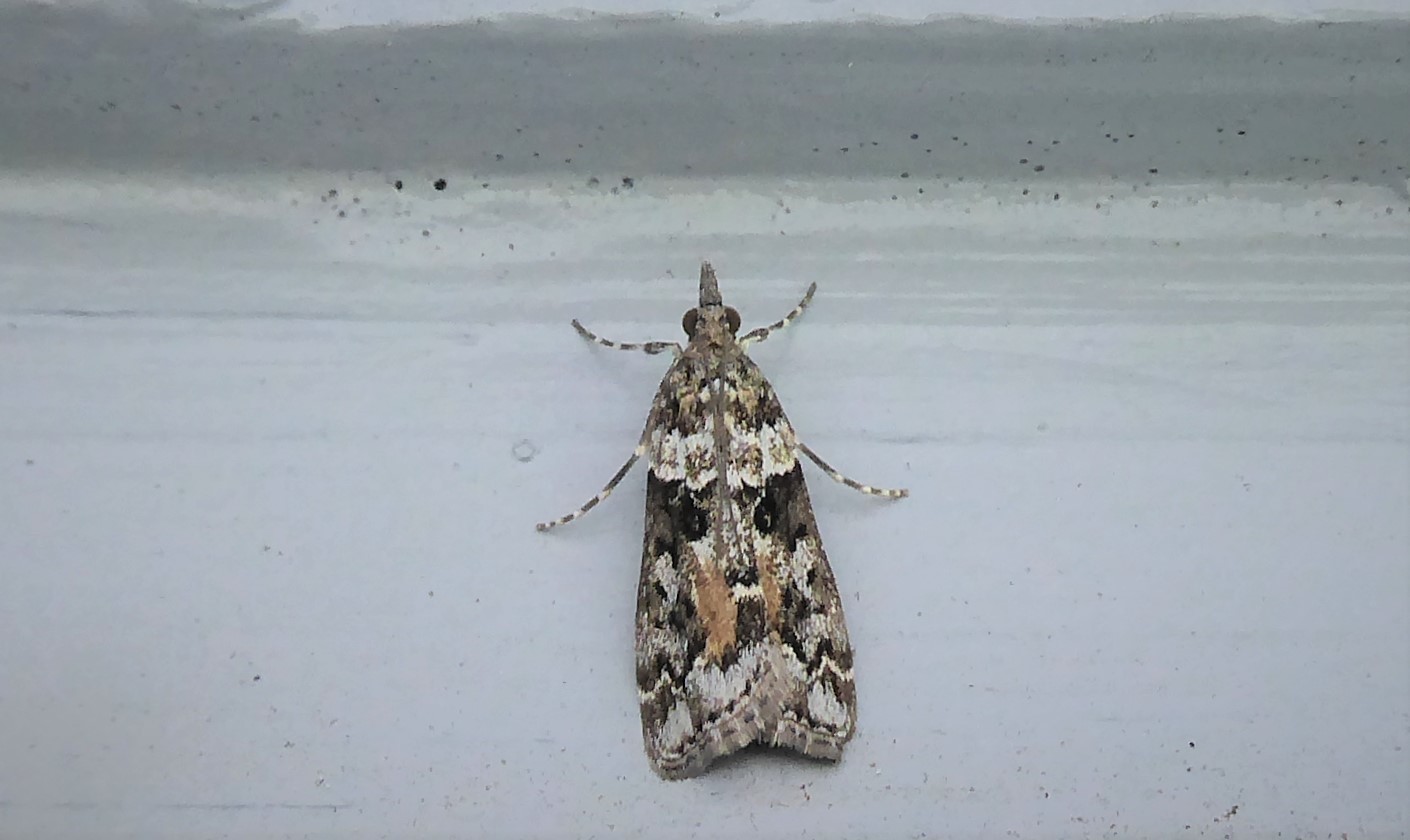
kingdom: Animalia
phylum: Arthropoda
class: Insecta
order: Lepidoptera
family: Crambidae
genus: Eudonia
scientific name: Eudonia submarginalis
